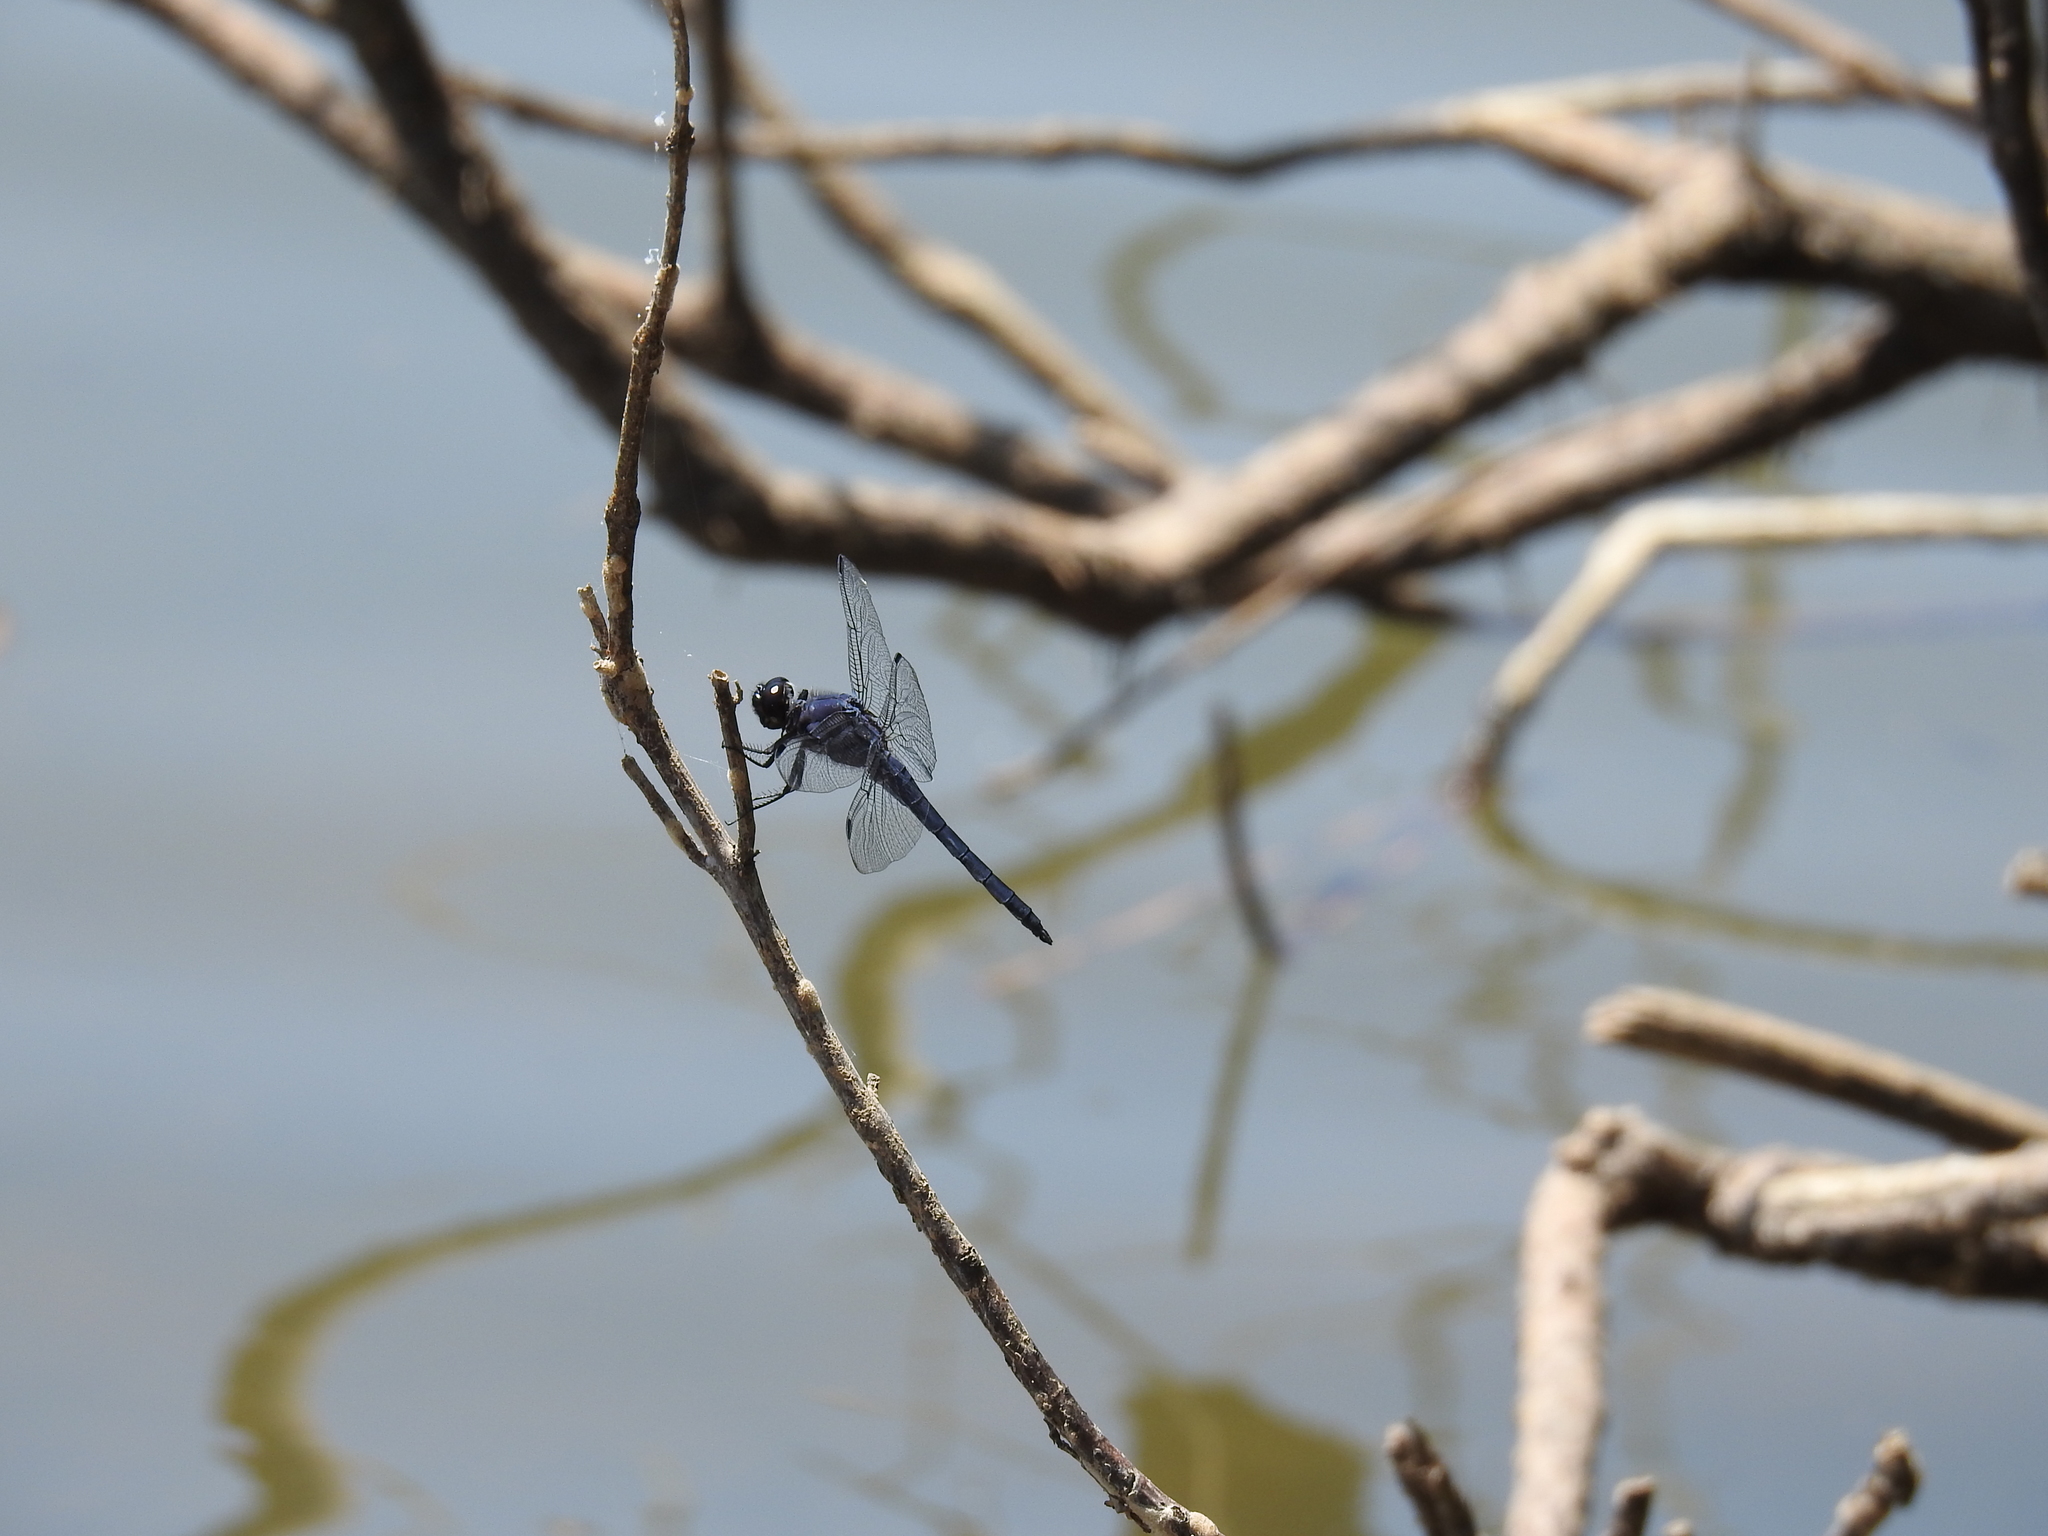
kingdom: Animalia
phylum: Arthropoda
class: Insecta
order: Odonata
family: Libellulidae
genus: Libellula
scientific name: Libellula incesta
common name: Slaty skimmer
